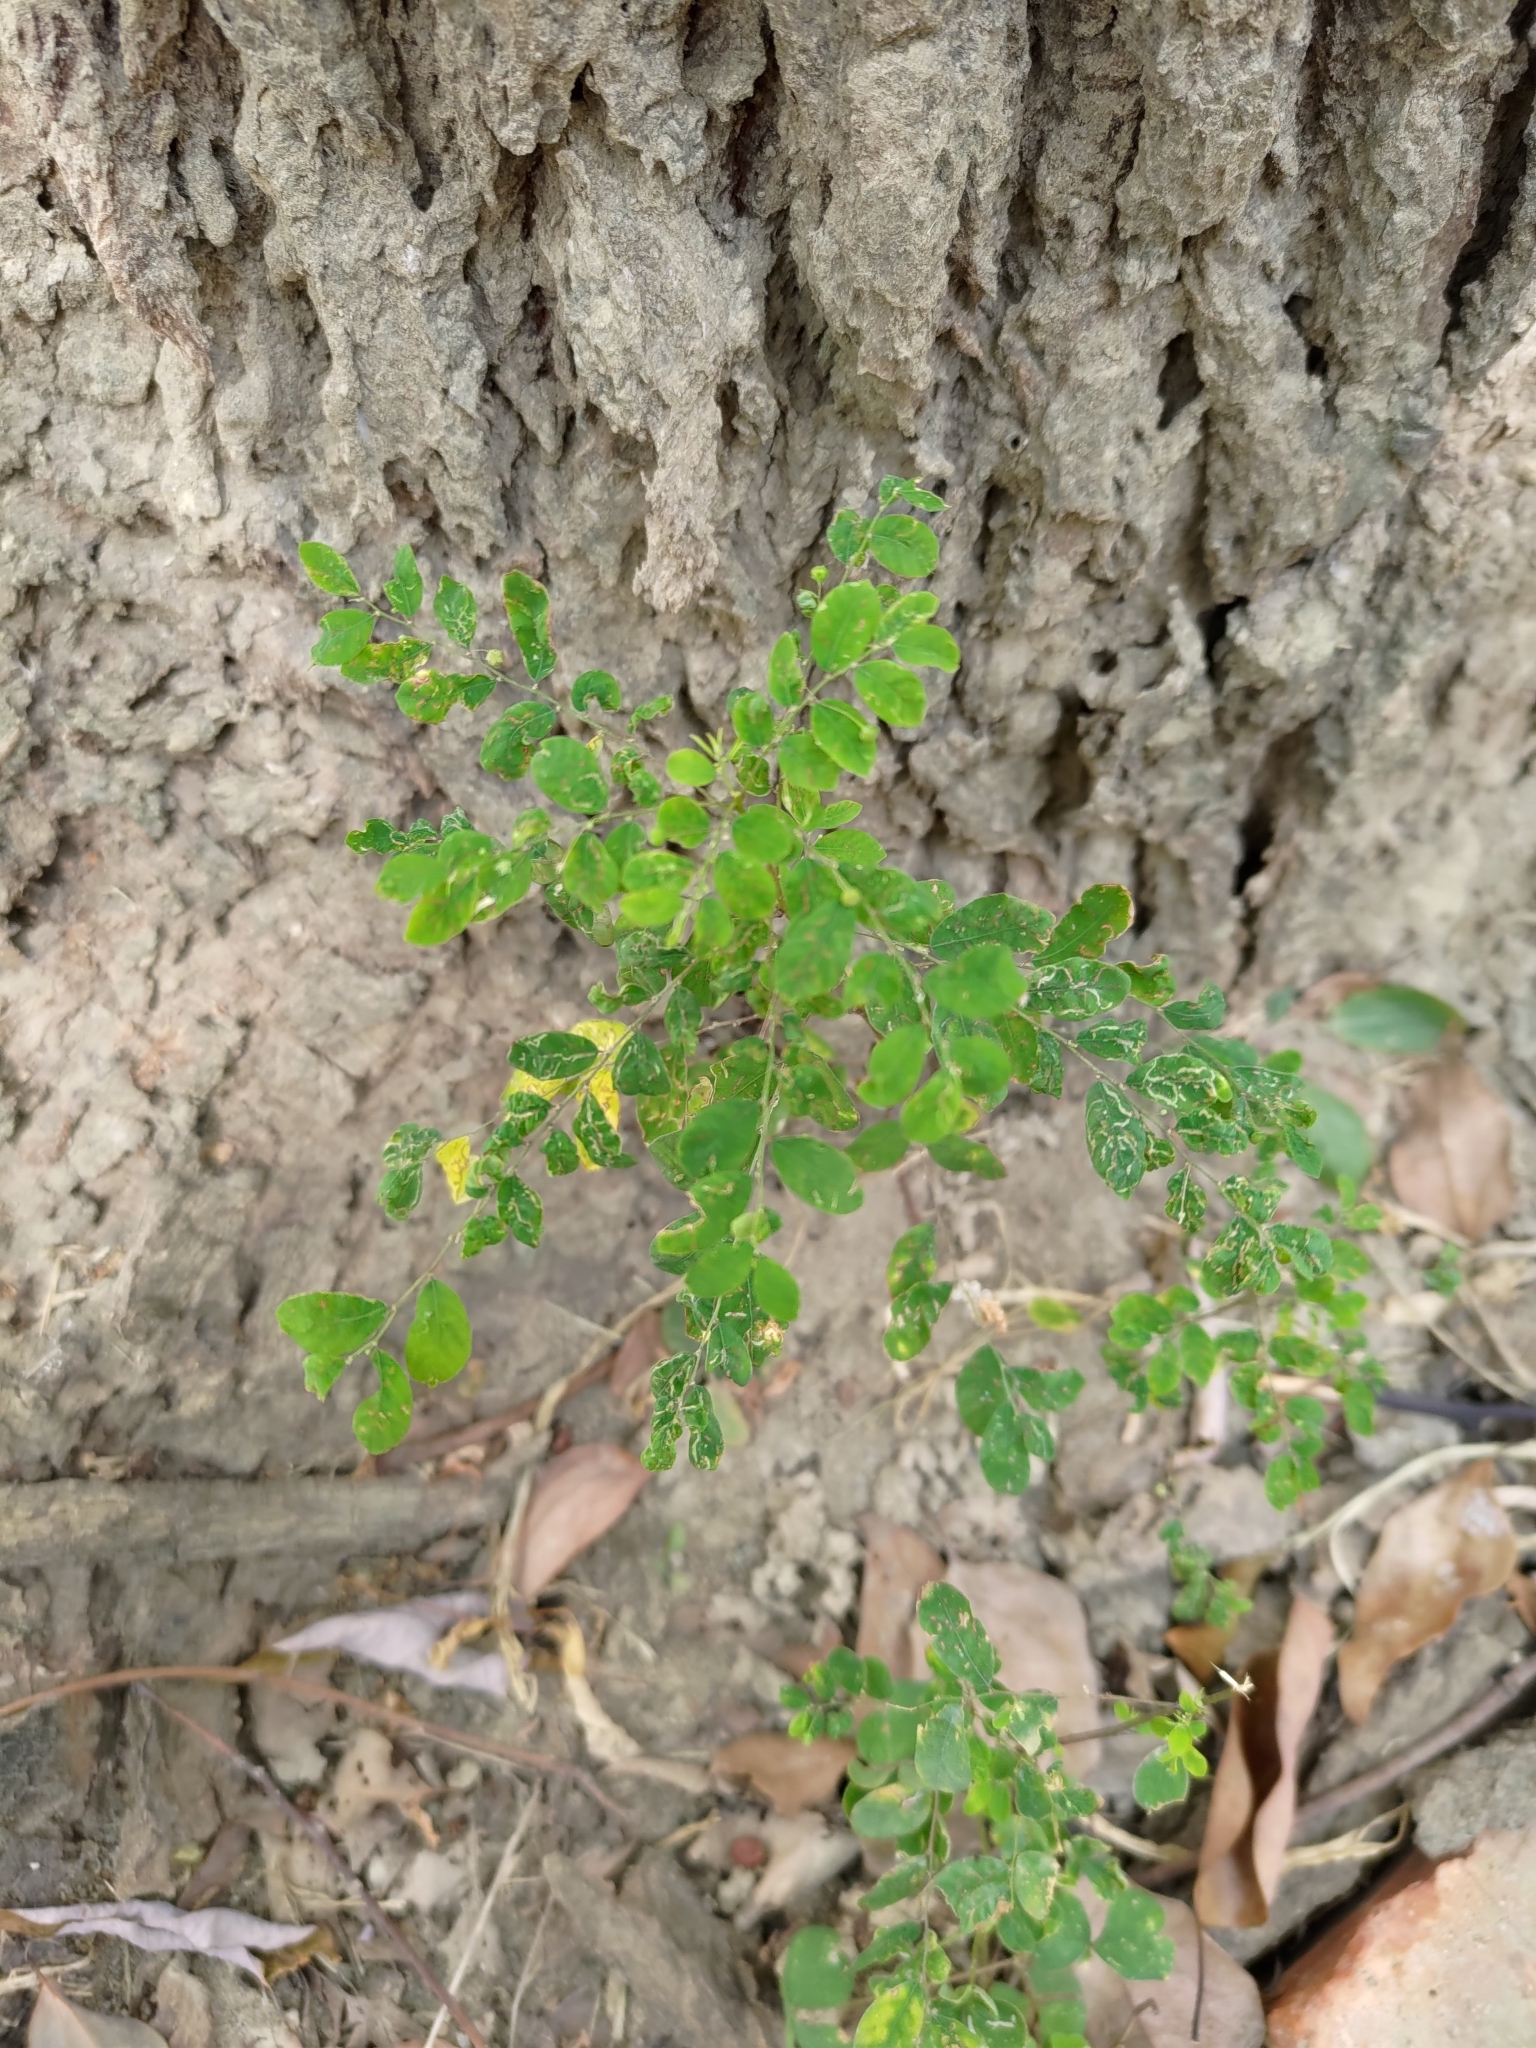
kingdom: Plantae
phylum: Tracheophyta
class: Magnoliopsida
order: Malpighiales
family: Phyllanthaceae
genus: Phyllanthus
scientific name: Phyllanthus tenellus
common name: Mascarene island leaf-flower
